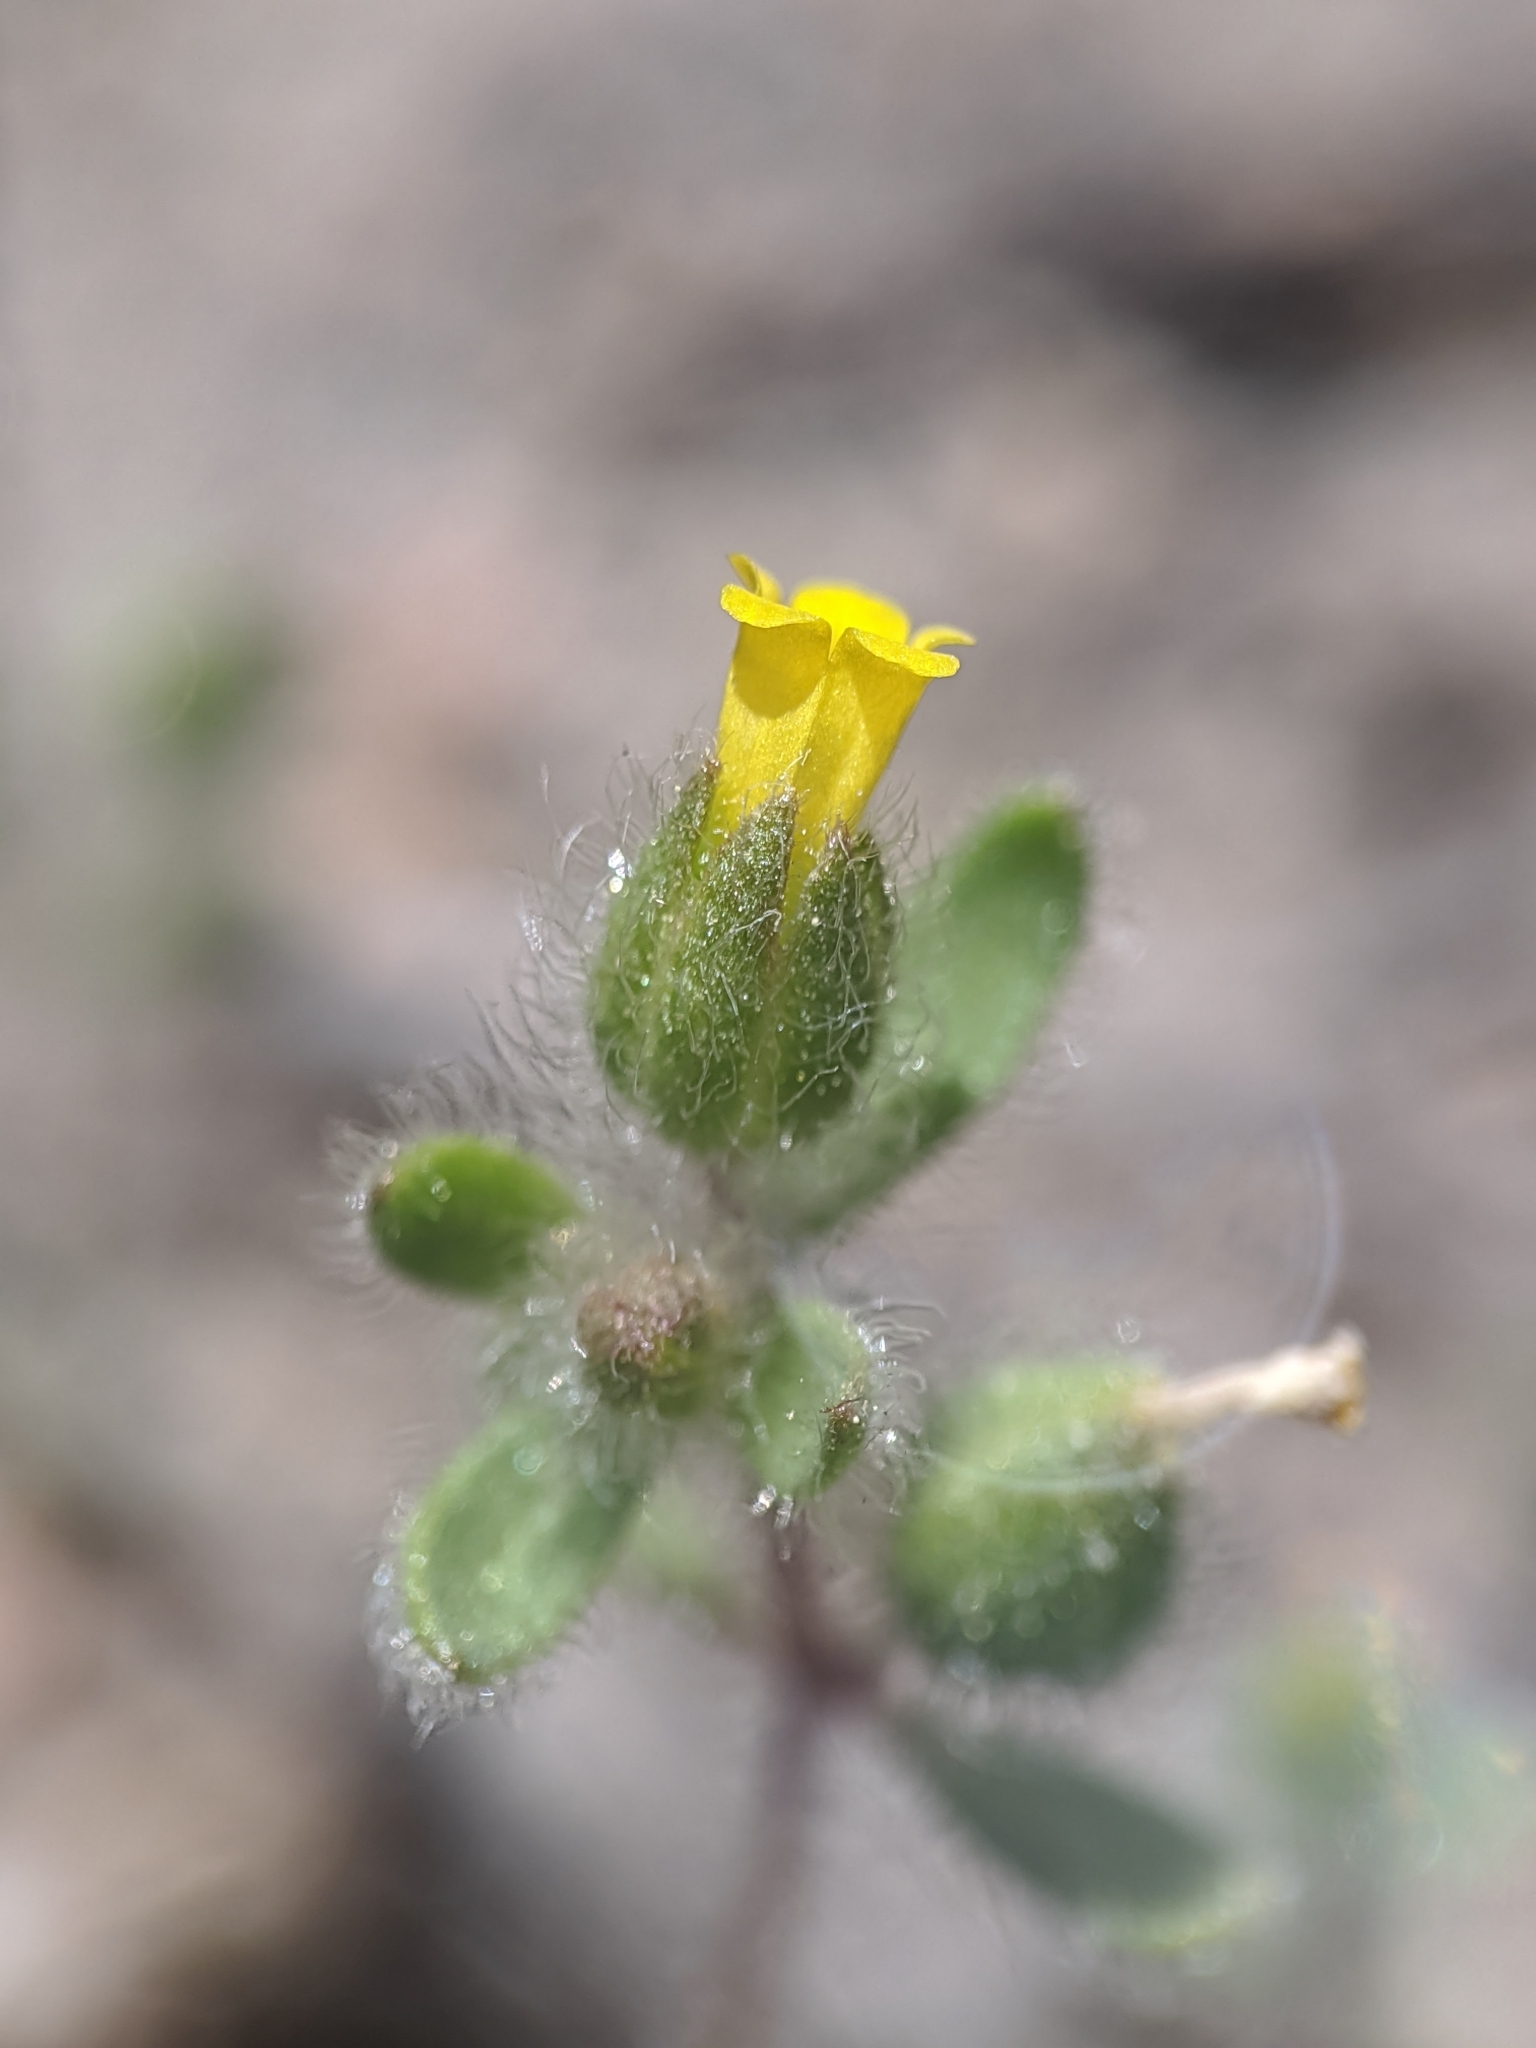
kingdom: Plantae
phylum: Tracheophyta
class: Magnoliopsida
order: Lamiales
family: Phrymaceae
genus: Mimetanthe
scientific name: Mimetanthe pilosa
